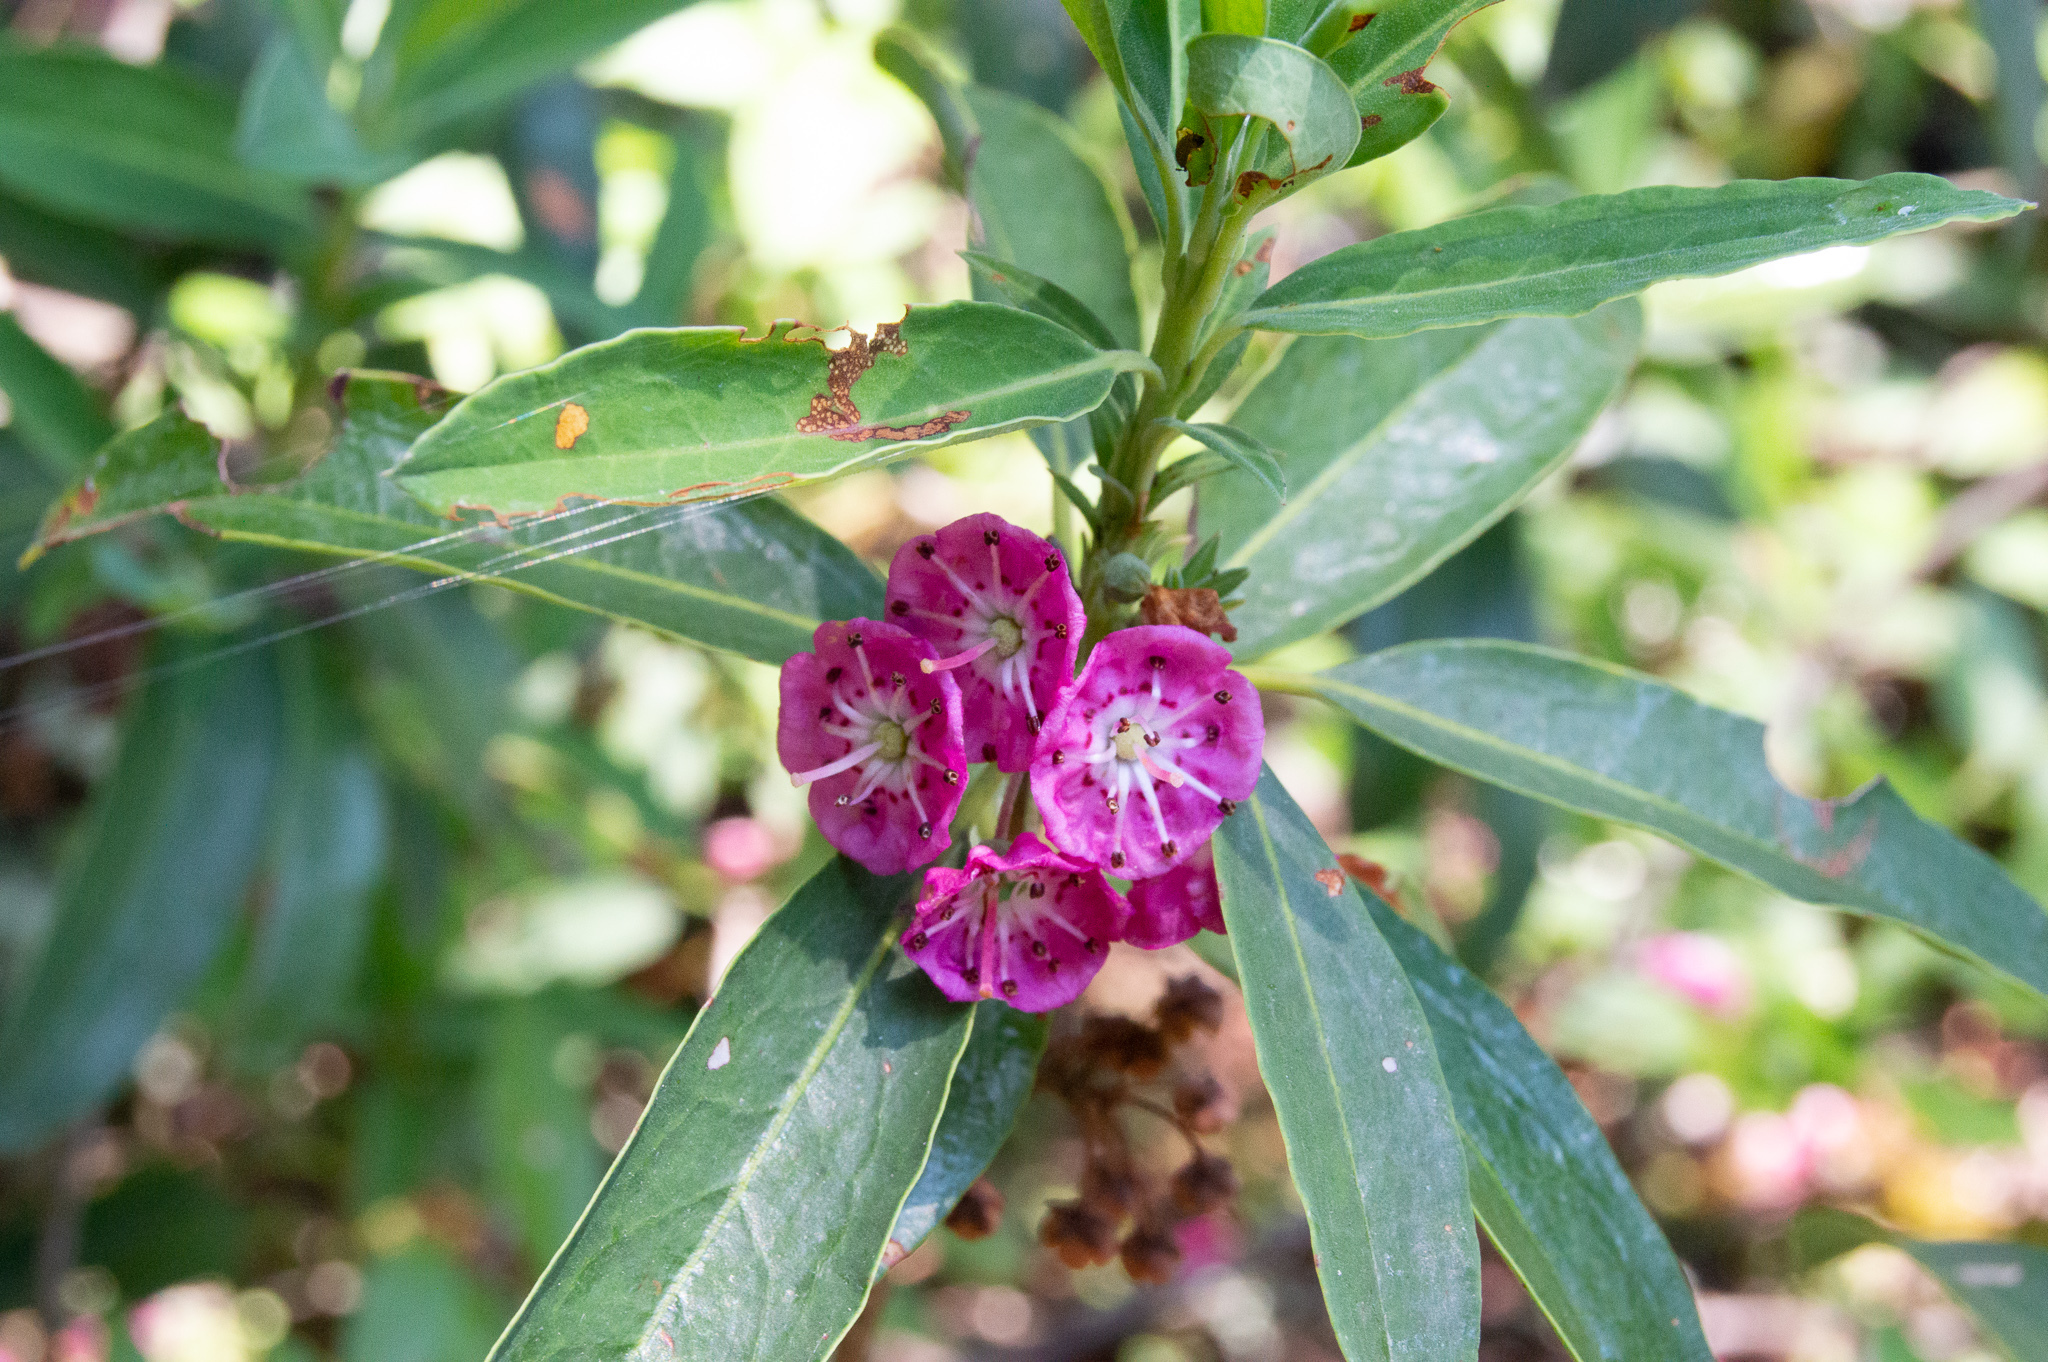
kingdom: Plantae
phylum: Tracheophyta
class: Magnoliopsida
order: Ericales
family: Ericaceae
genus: Kalmia
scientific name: Kalmia angustifolia
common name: Sheep-laurel
